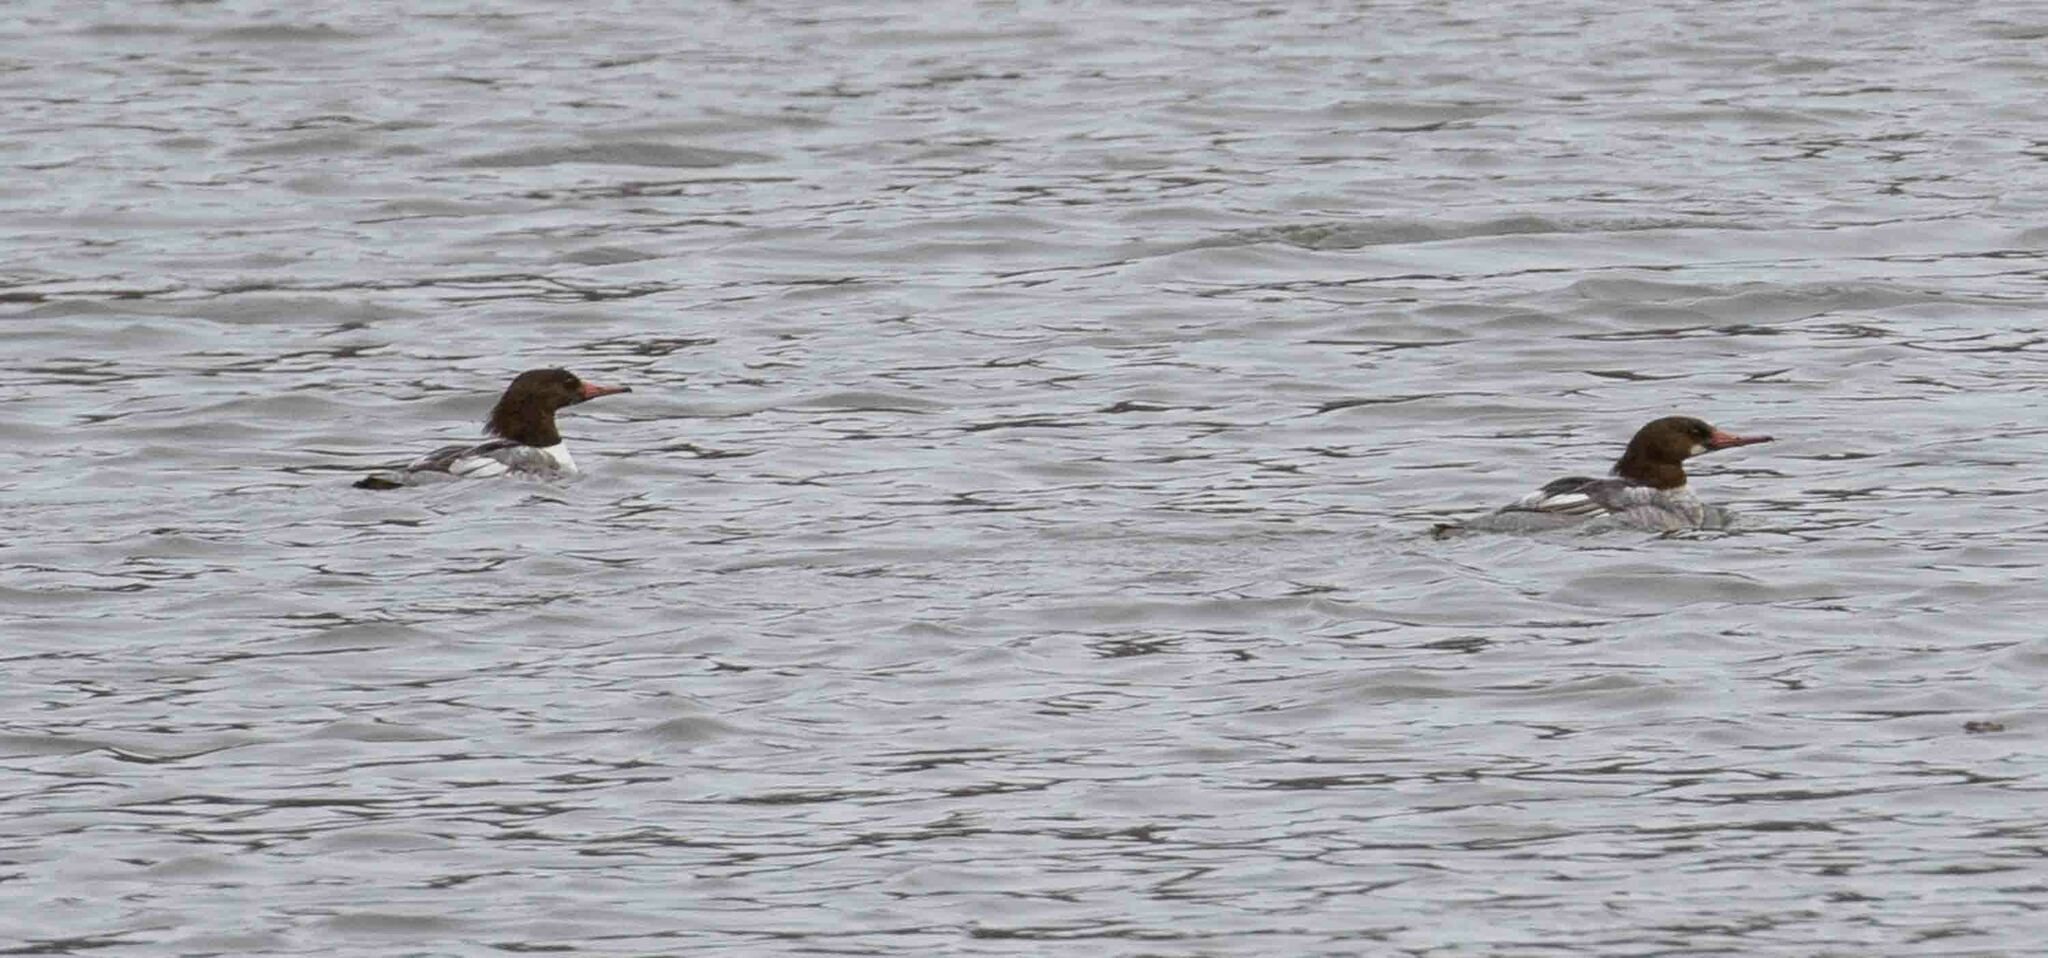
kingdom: Animalia
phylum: Chordata
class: Aves
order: Anseriformes
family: Anatidae
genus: Mergus
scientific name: Mergus merganser
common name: Common merganser
